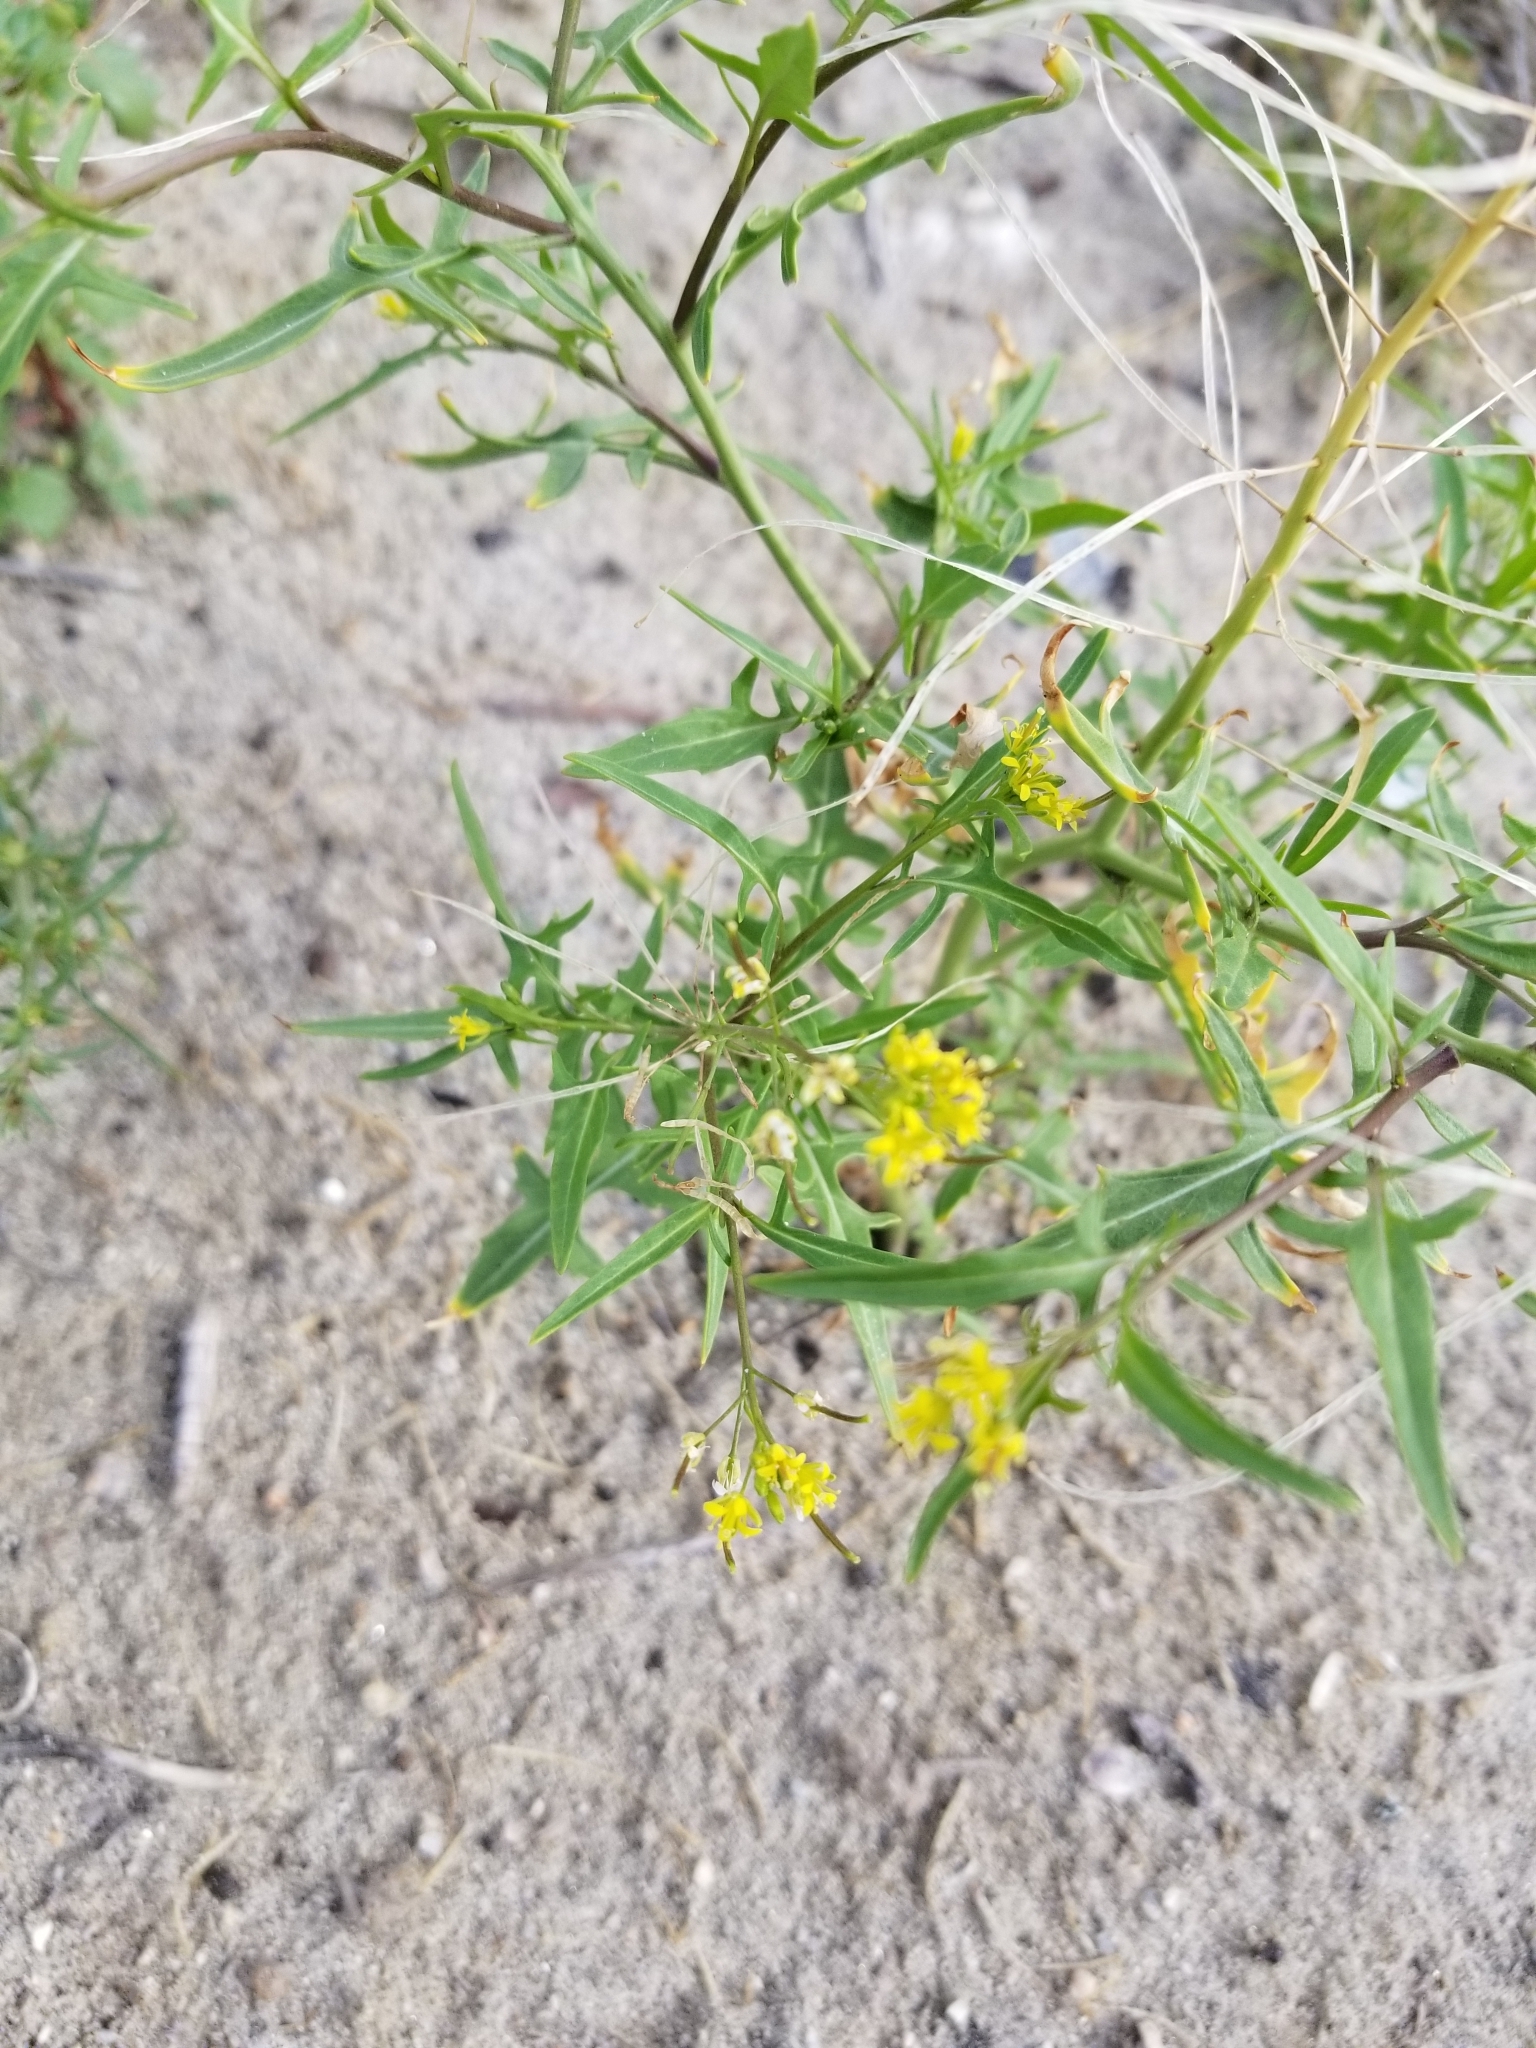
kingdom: Plantae
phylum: Tracheophyta
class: Magnoliopsida
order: Brassicales
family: Brassicaceae
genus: Sisymbrium
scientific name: Sisymbrium irio
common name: London rocket
